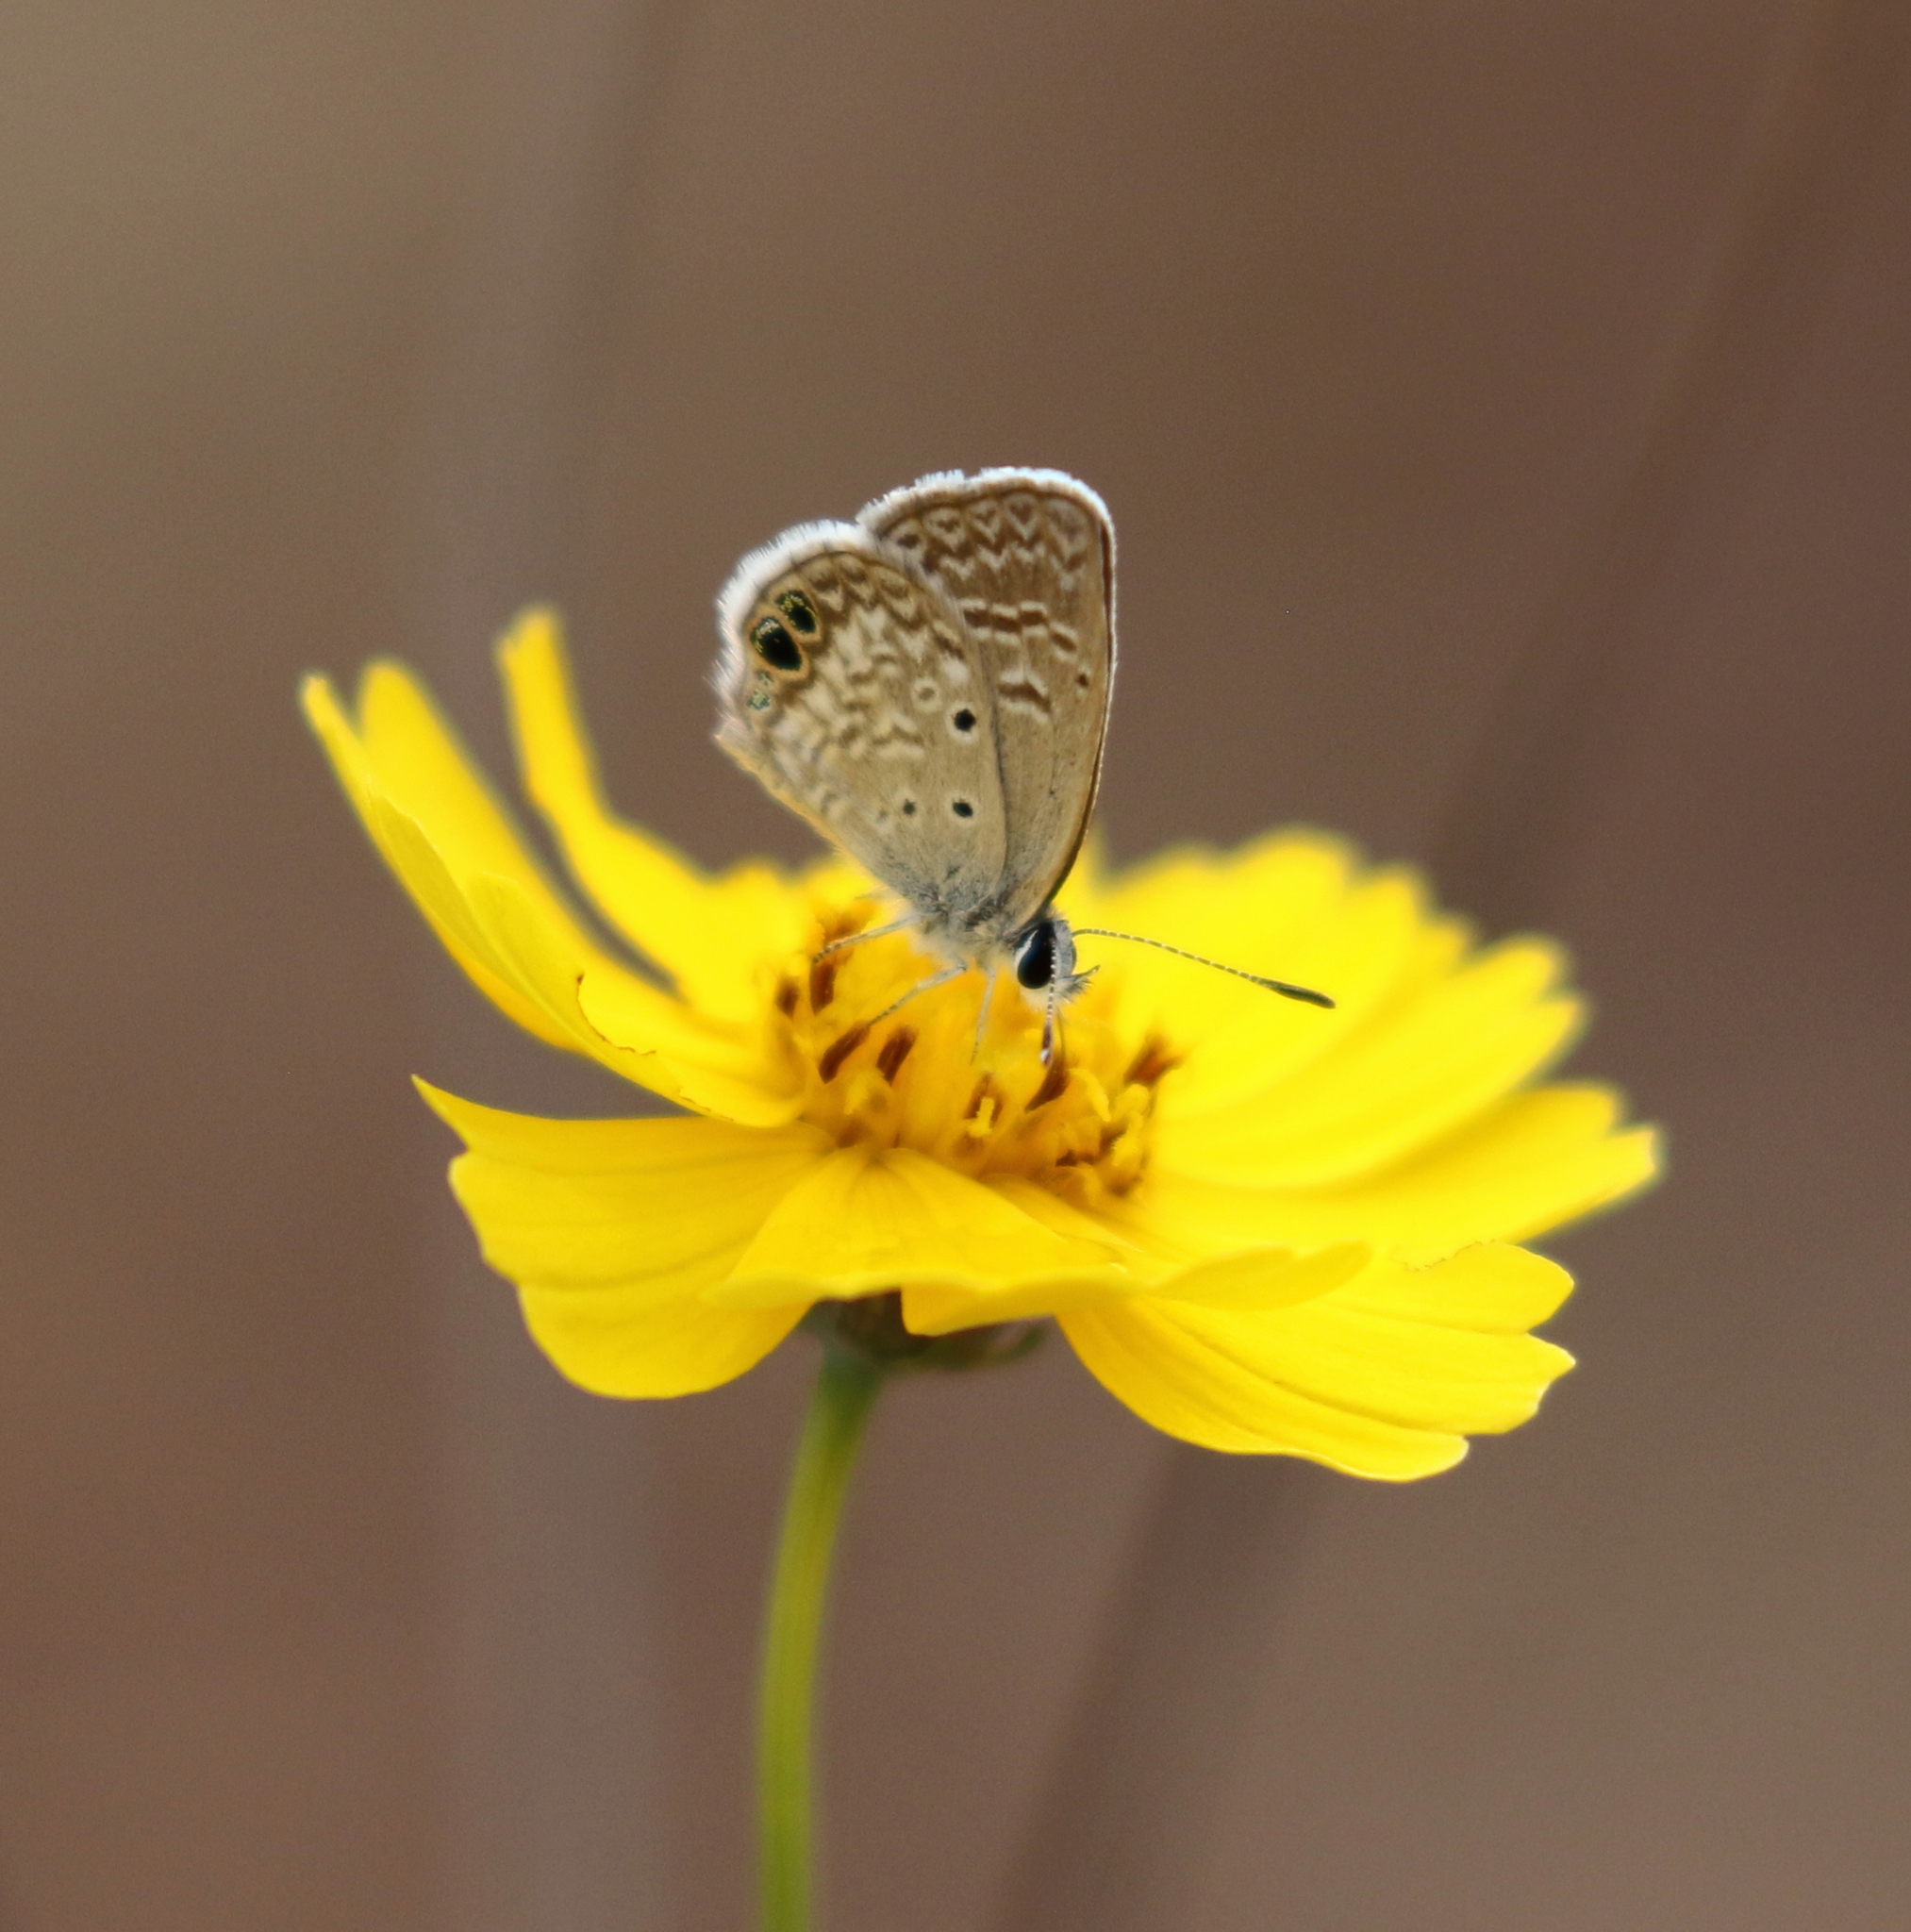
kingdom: Animalia
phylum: Arthropoda
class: Insecta
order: Lepidoptera
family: Lycaenidae
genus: Hemiargus
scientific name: Hemiargus ceraunus
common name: Ceraunus blue
